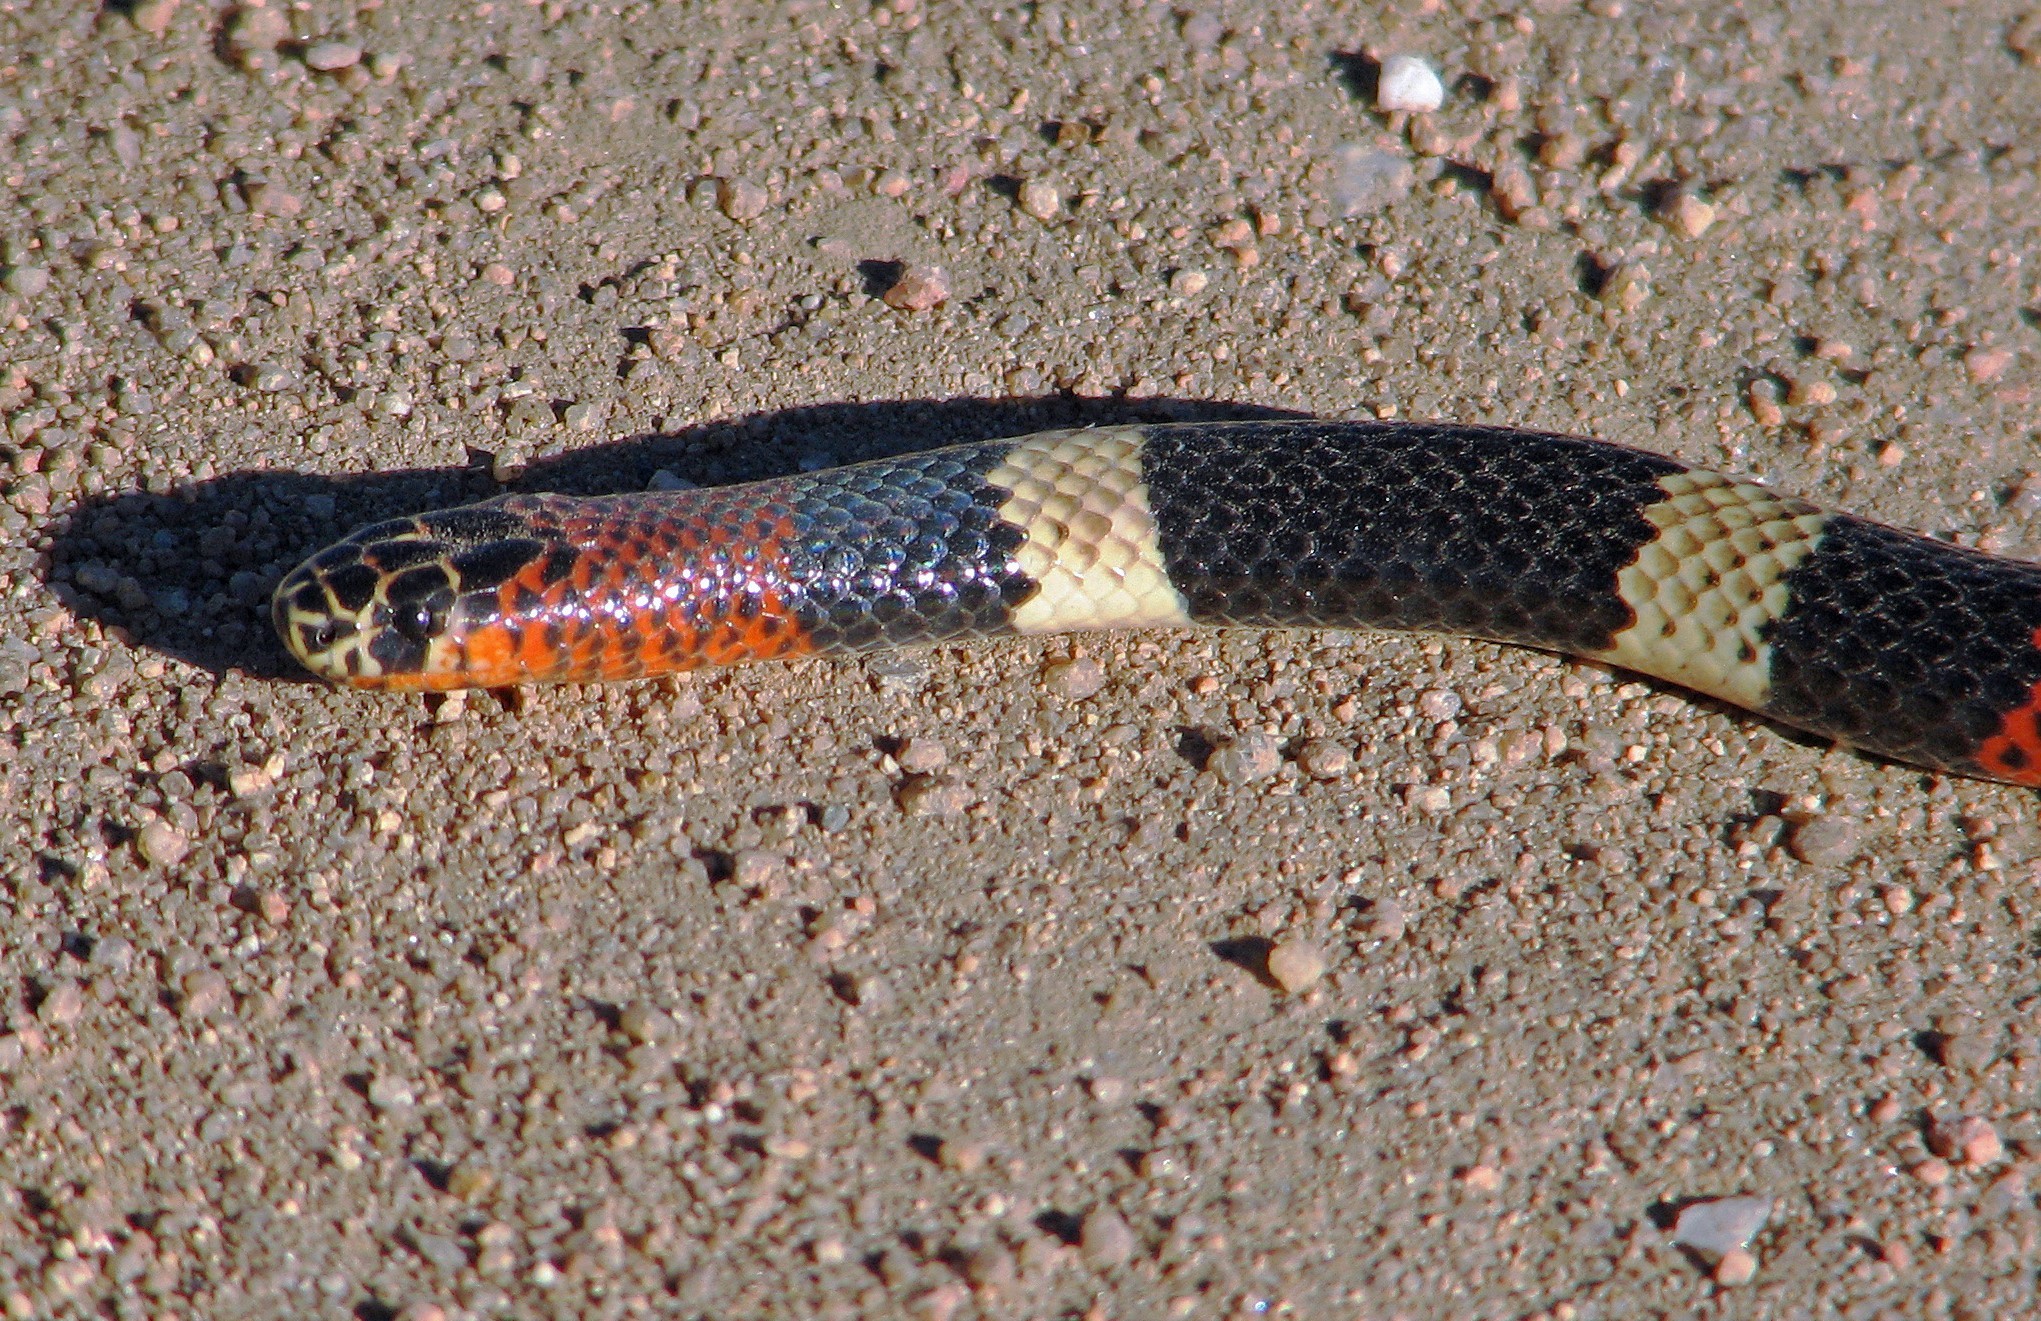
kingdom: Animalia
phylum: Chordata
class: Squamata
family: Elapidae
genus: Micrurus
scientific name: Micrurus pyrrhocryptus
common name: Argentinian coral snake
